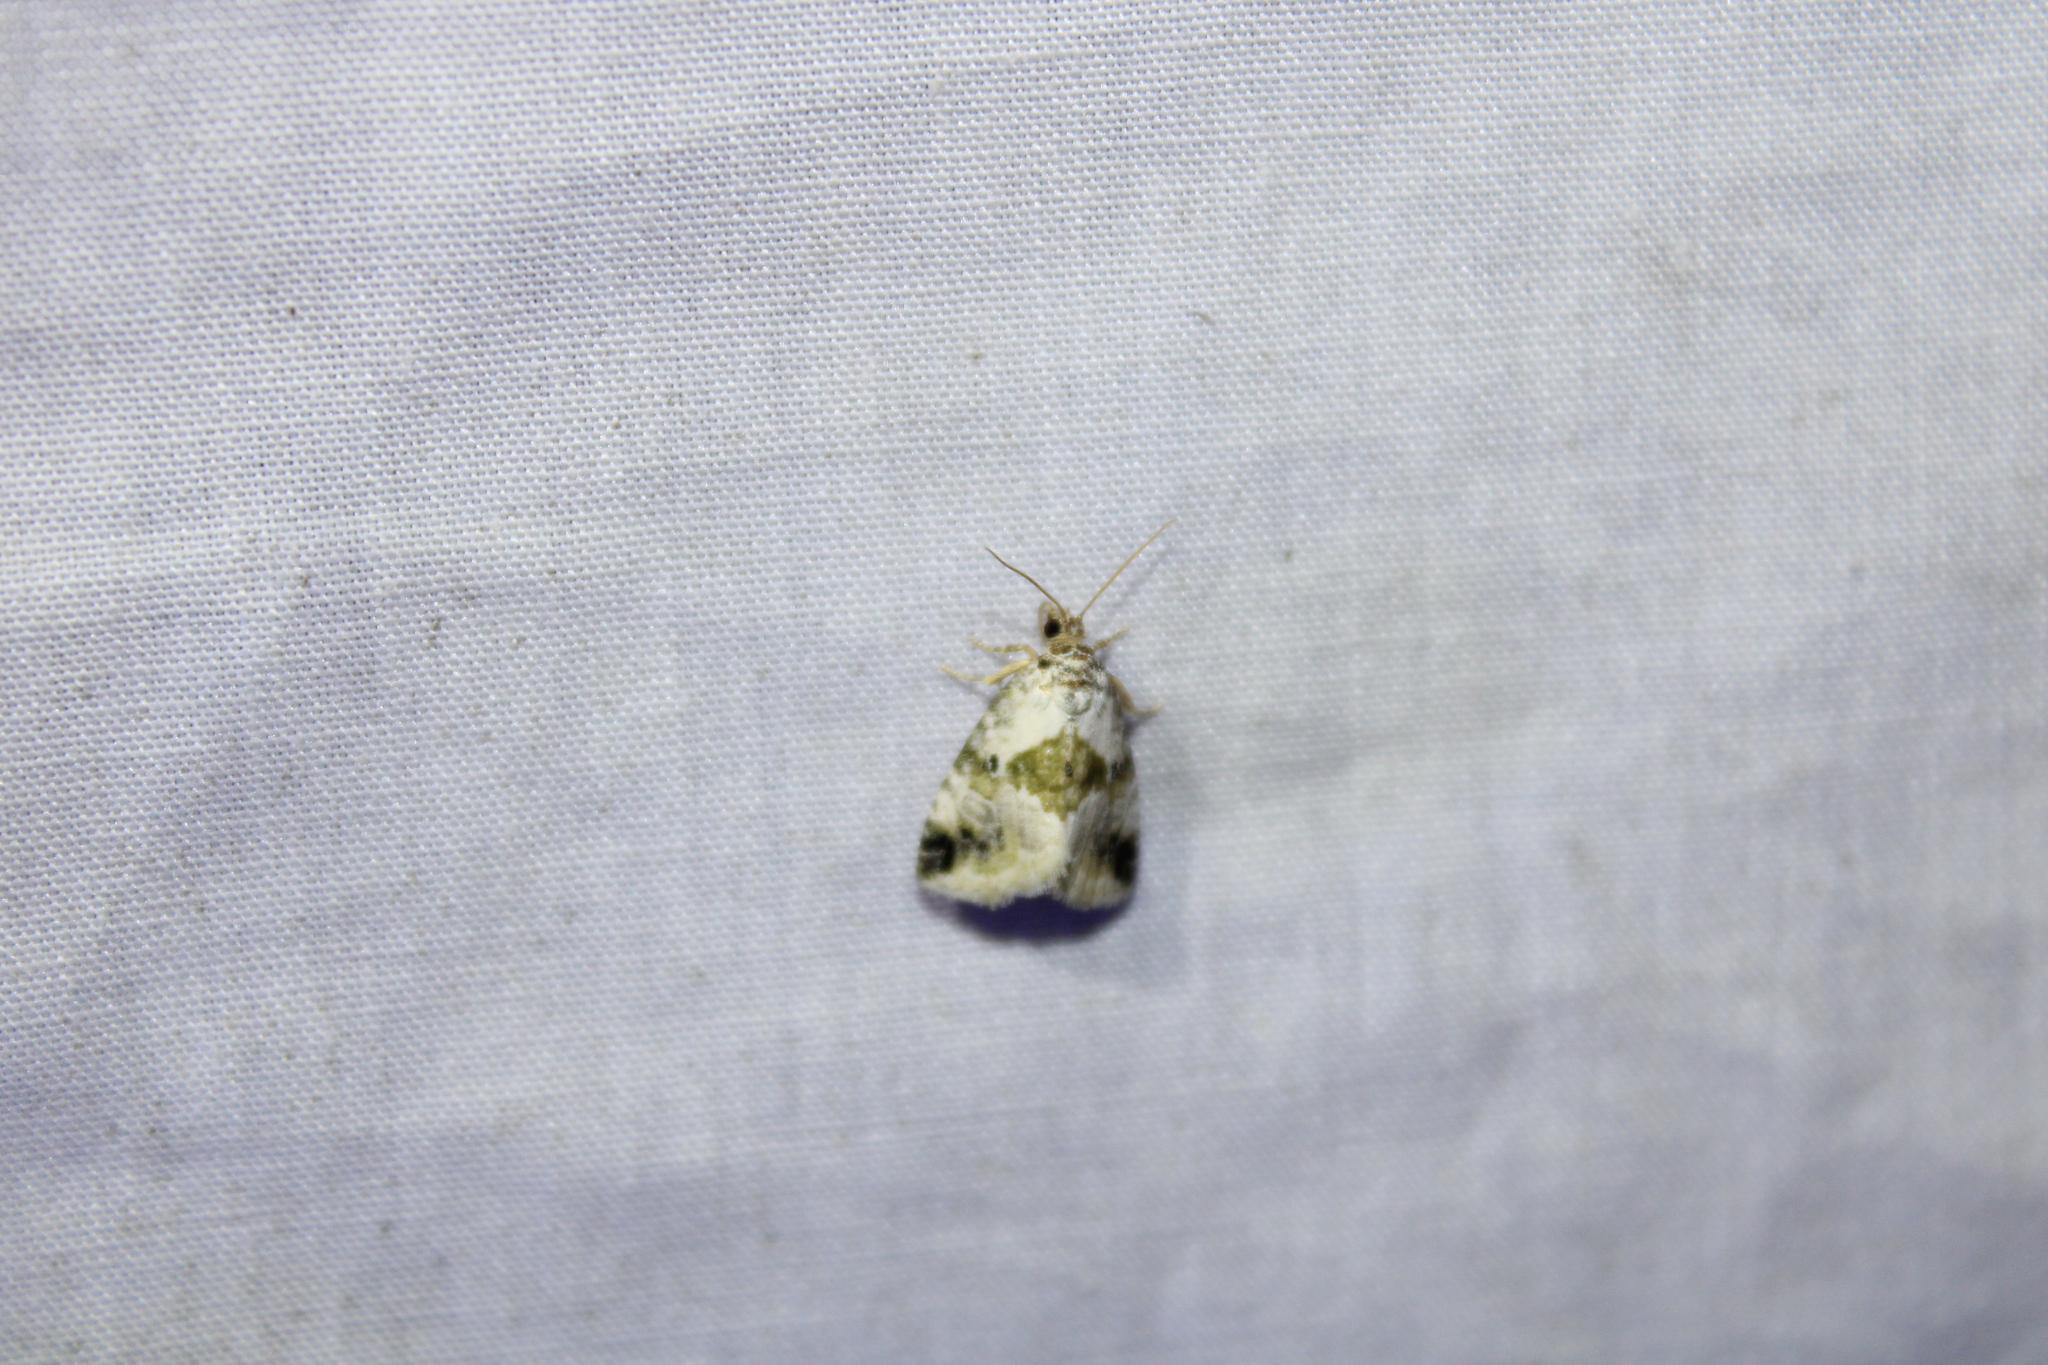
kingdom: Animalia
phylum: Arthropoda
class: Insecta
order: Lepidoptera
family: Noctuidae
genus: Maliattha
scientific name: Maliattha synochitis
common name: Black-dotted glyph
